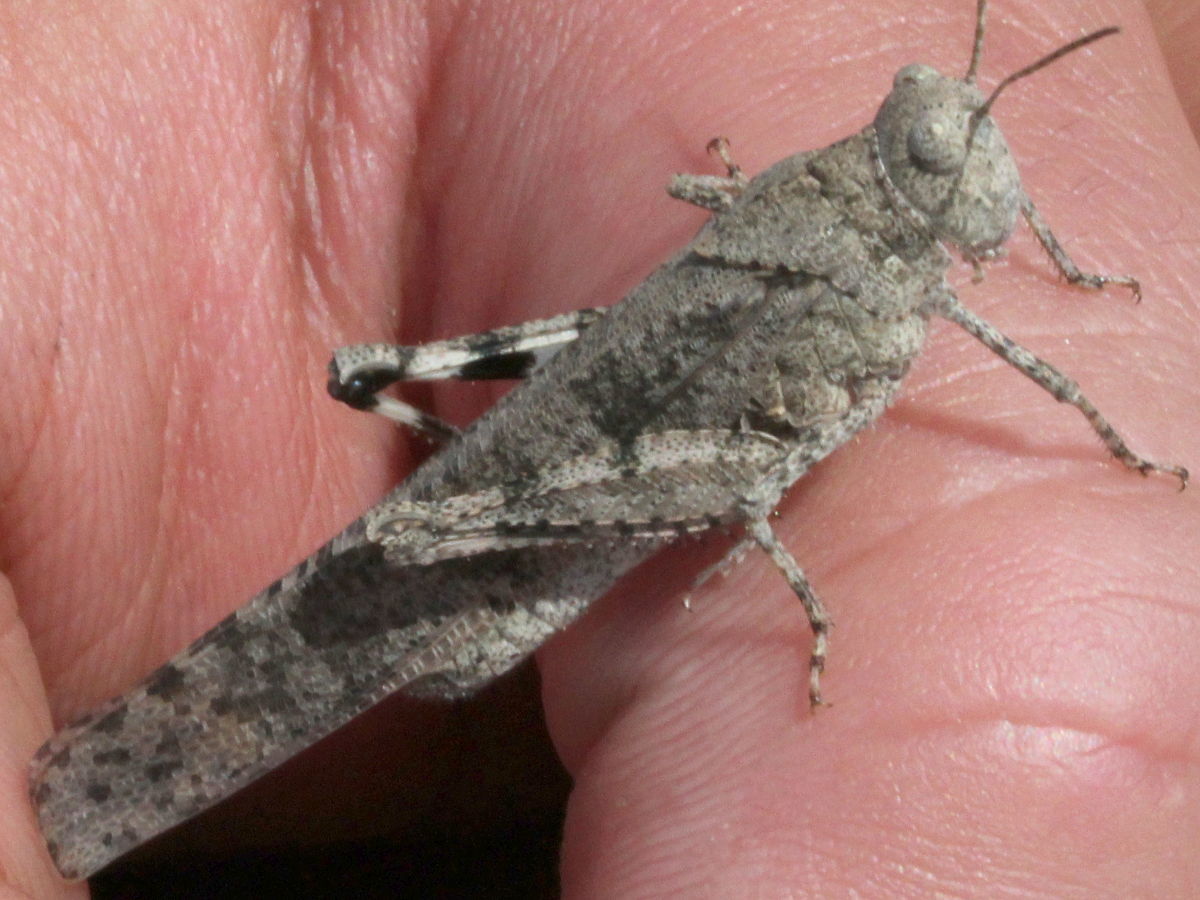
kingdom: Animalia
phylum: Arthropoda
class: Insecta
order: Orthoptera
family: Acrididae
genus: Dissosteira
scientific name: Dissosteira carolina
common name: Carolina grasshopper
